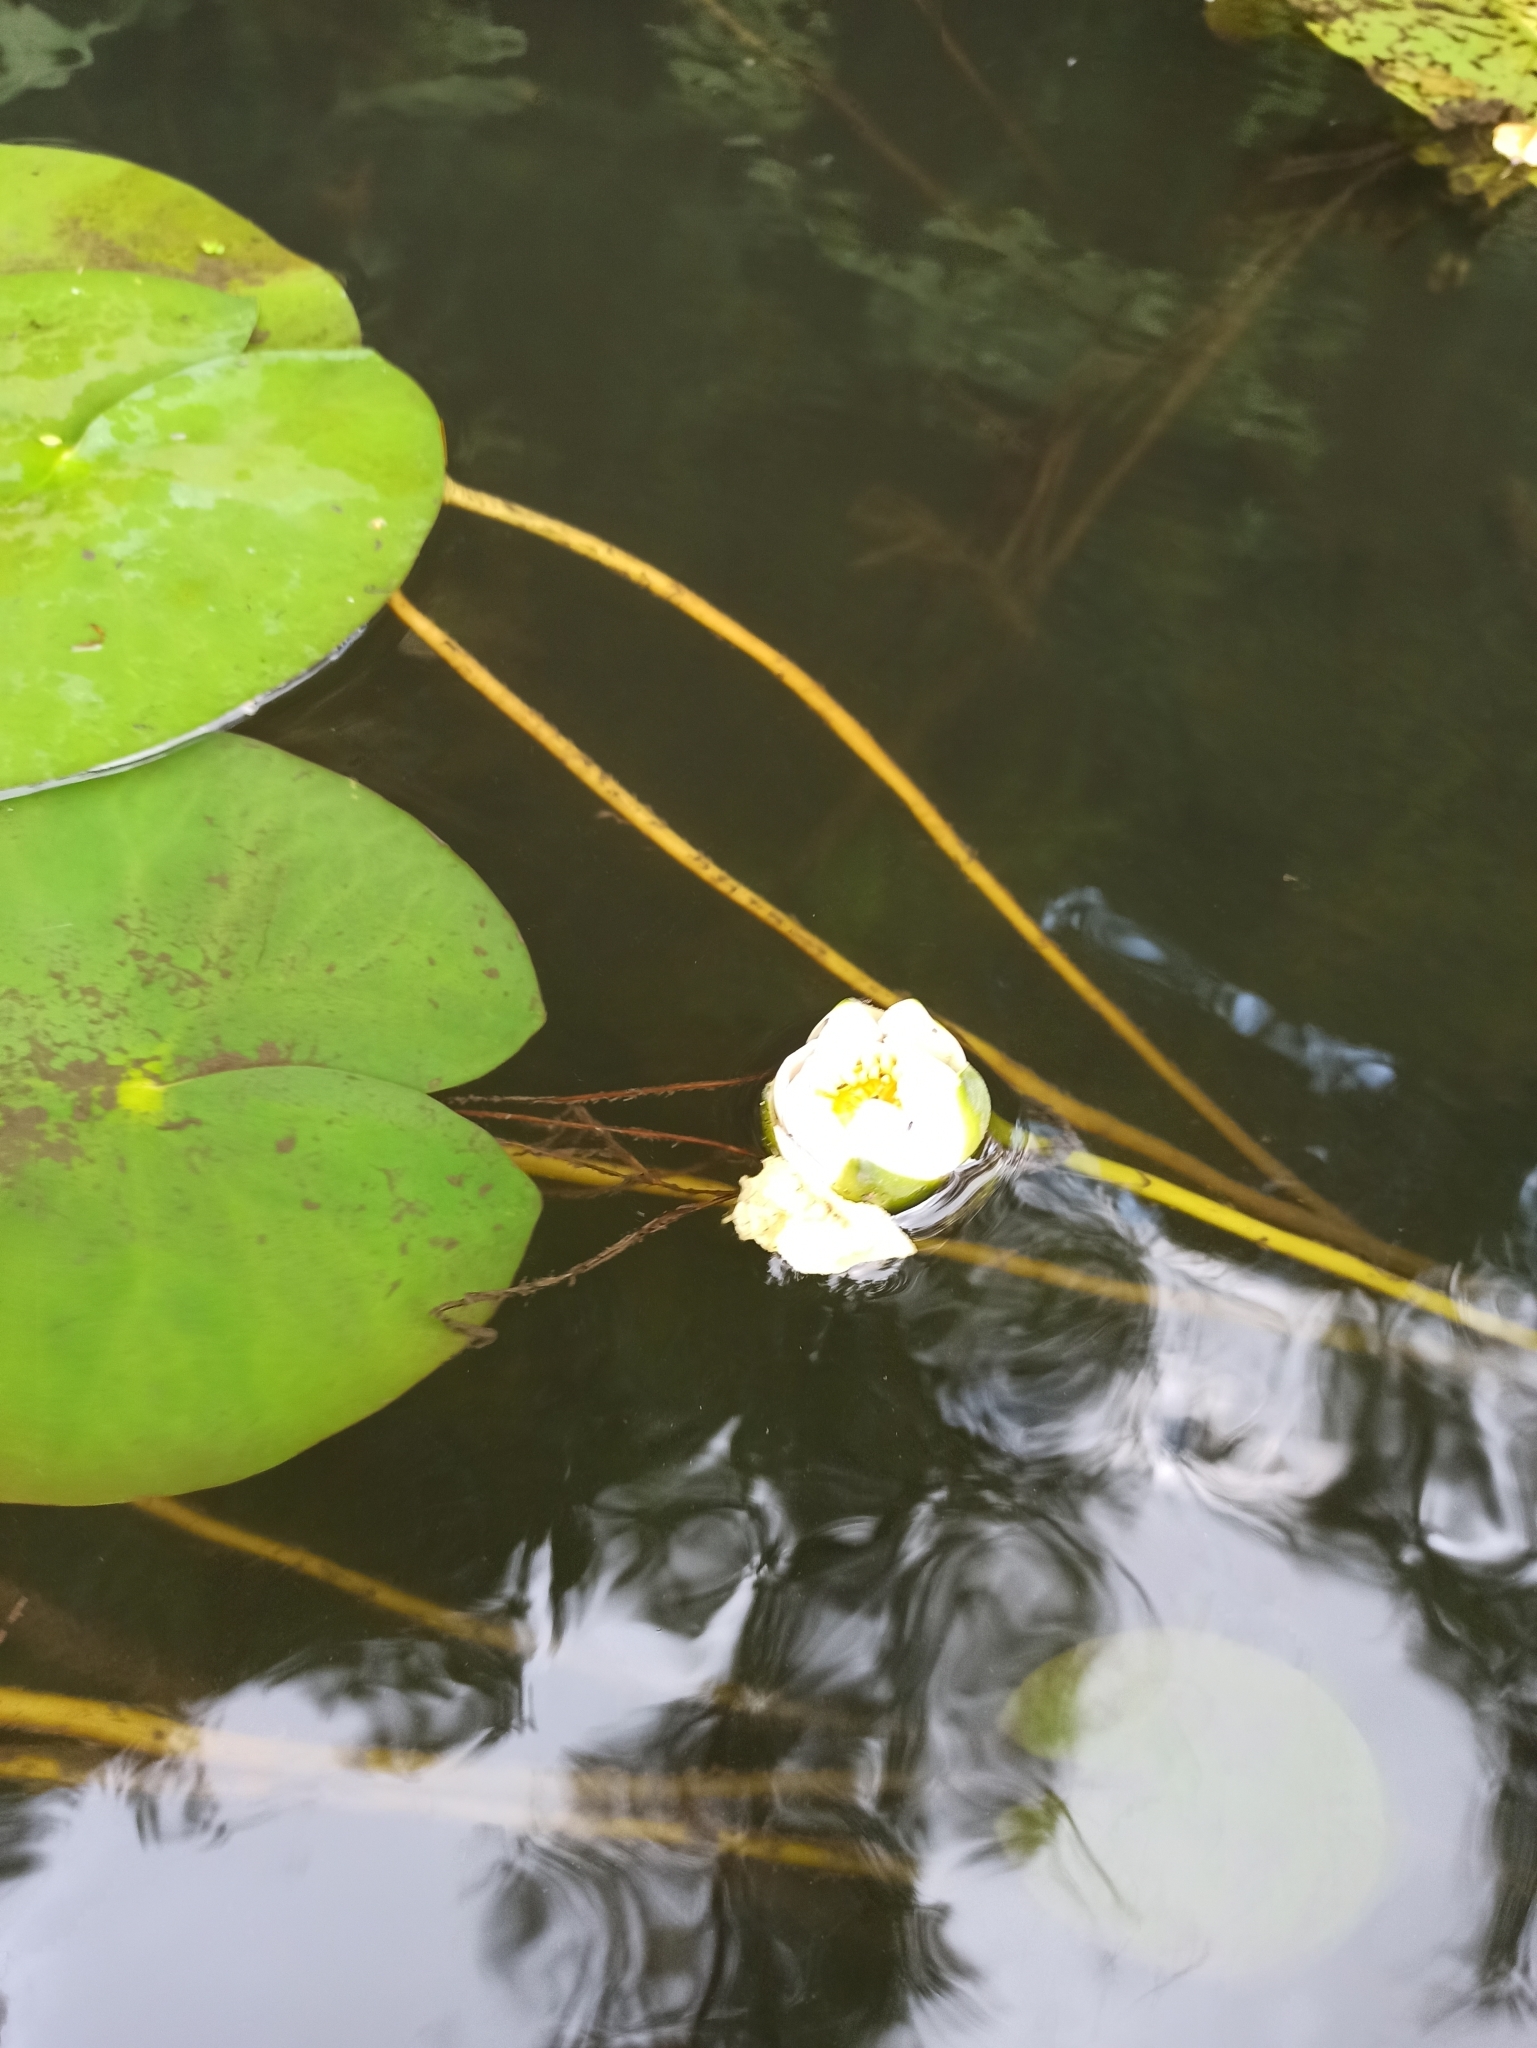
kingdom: Plantae
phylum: Tracheophyta
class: Magnoliopsida
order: Nymphaeales
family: Nymphaeaceae
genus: Nymphaea
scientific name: Nymphaea candida
